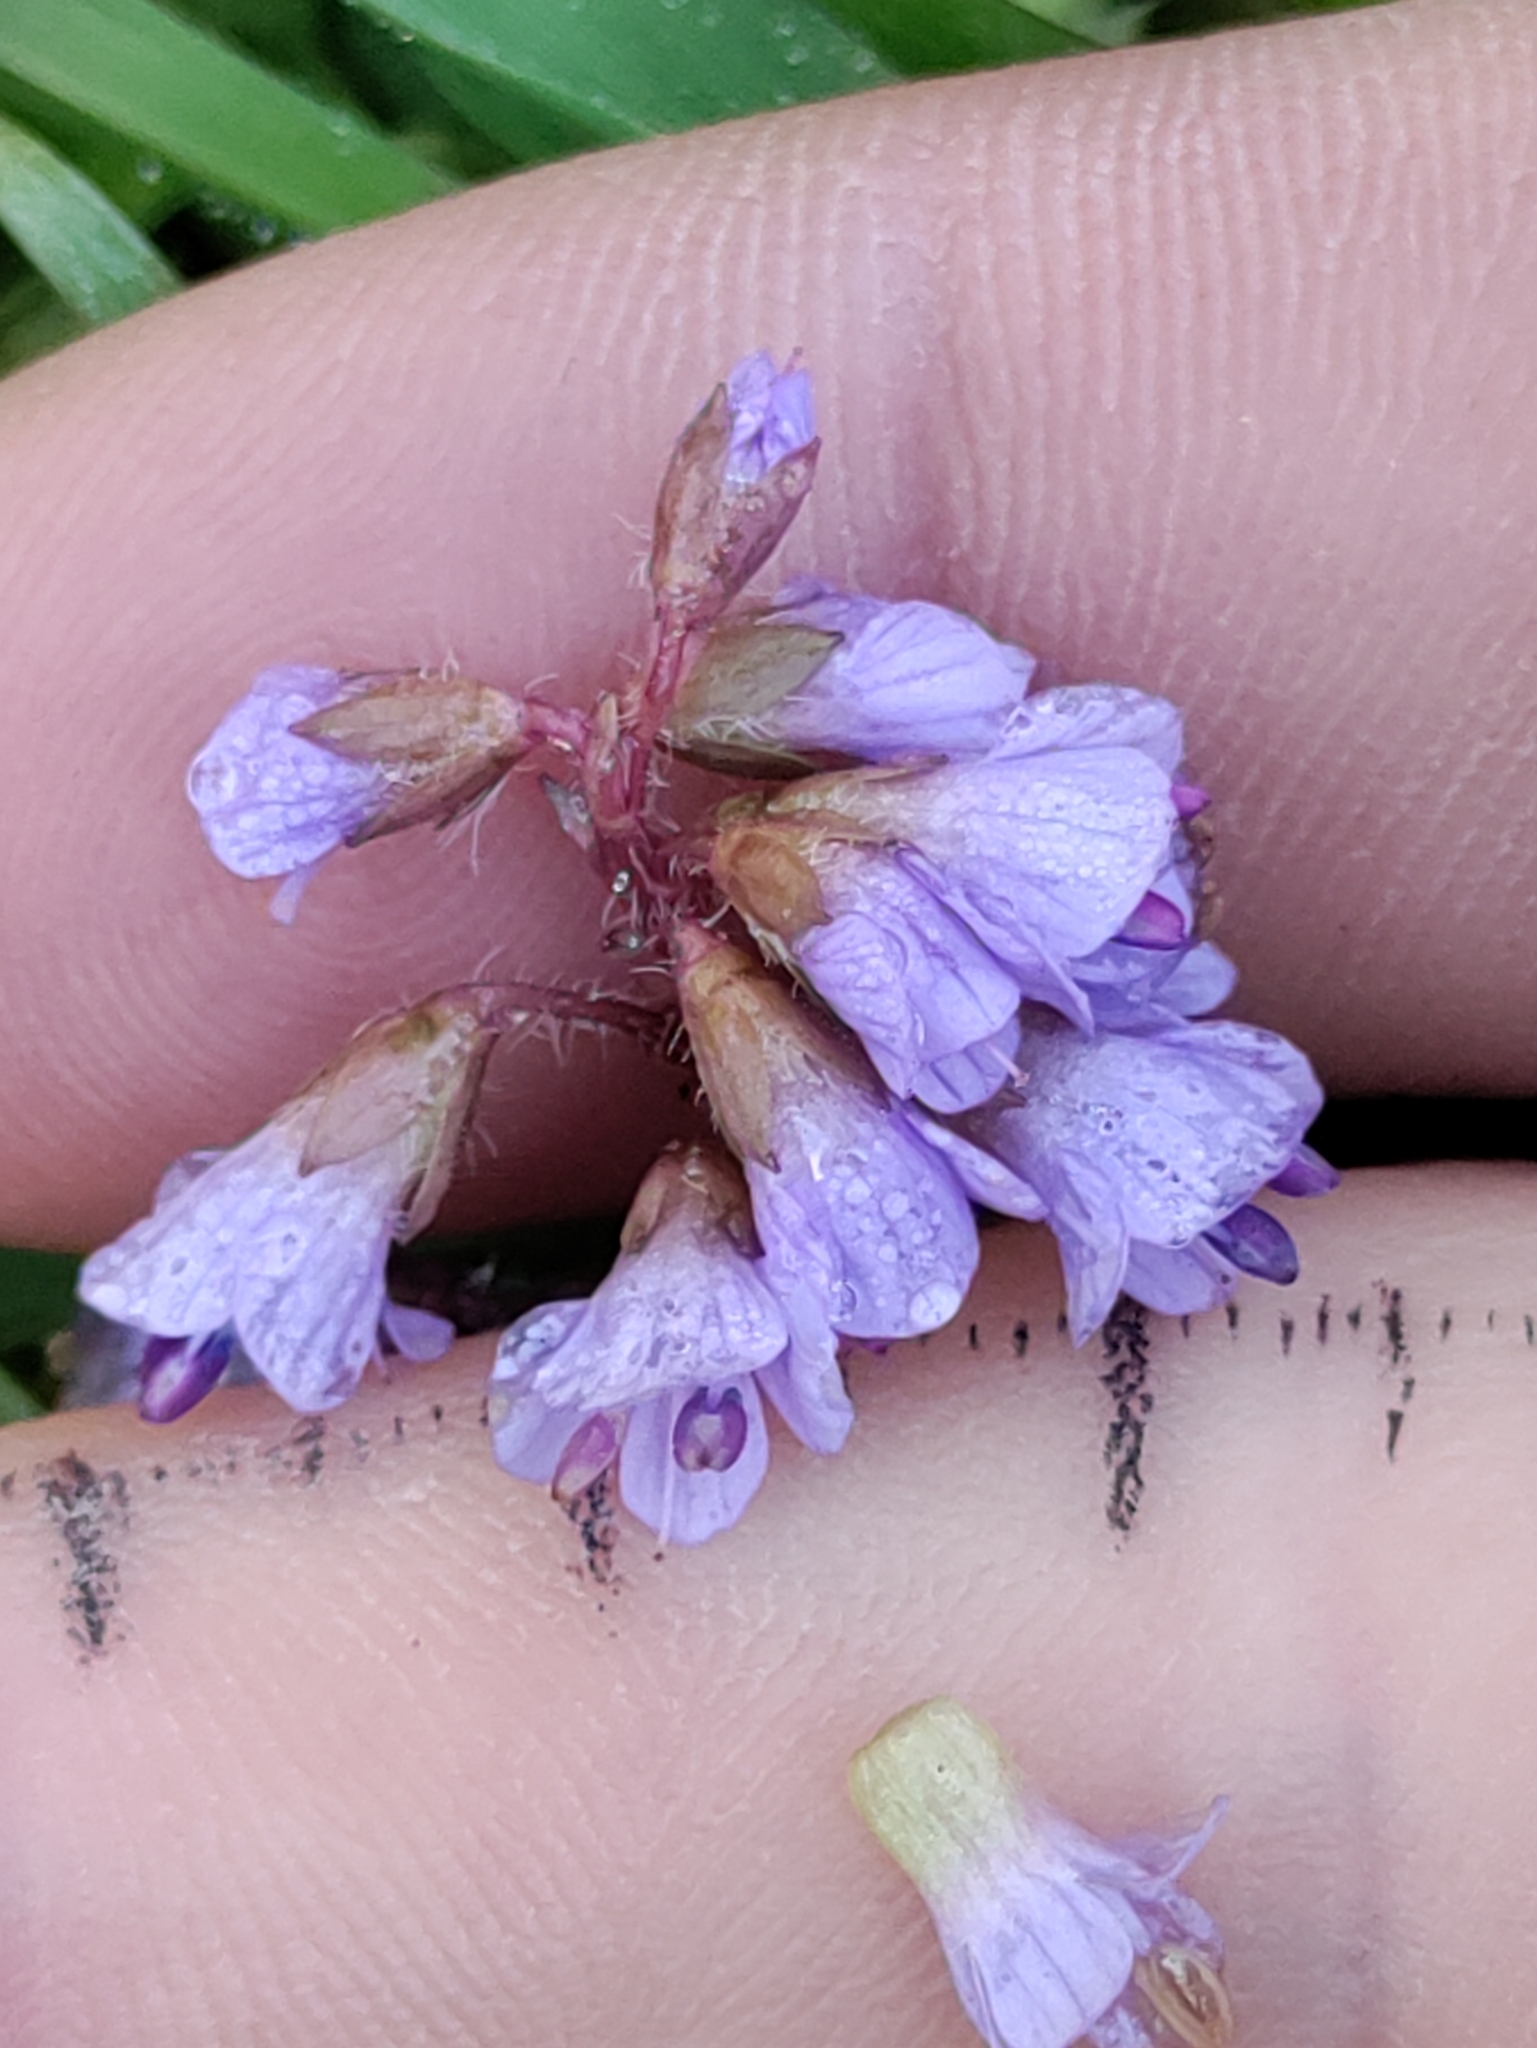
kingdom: Plantae
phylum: Tracheophyta
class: Magnoliopsida
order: Lamiales
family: Plantaginaceae
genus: Synthyris
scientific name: Synthyris reniformis
